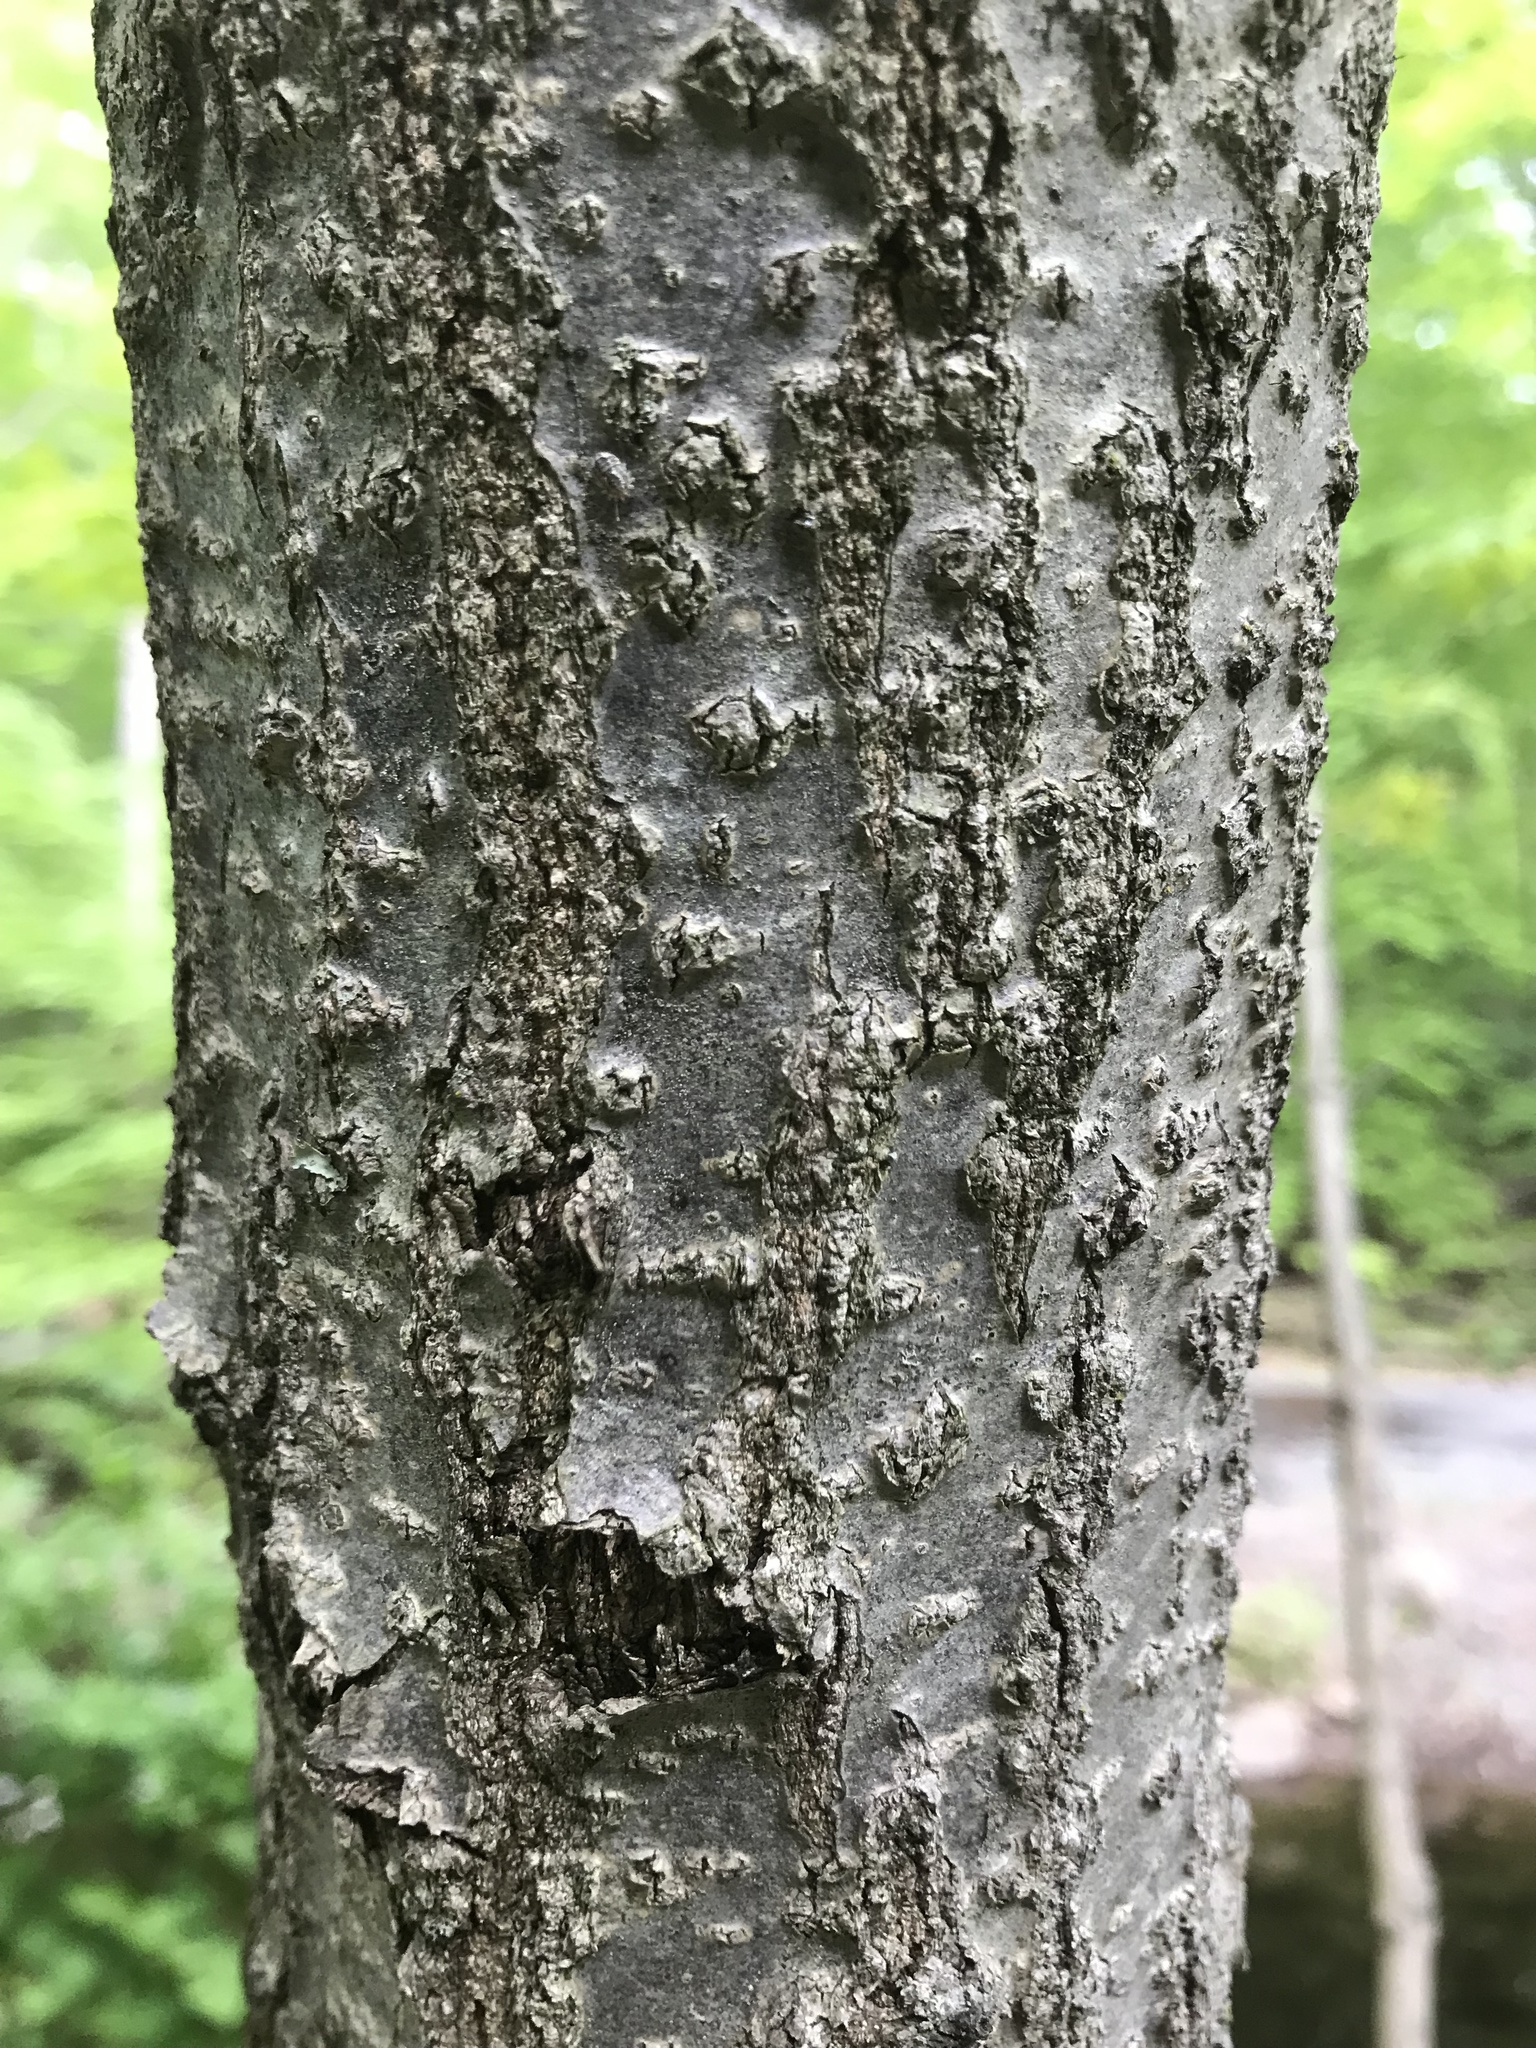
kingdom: Plantae
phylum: Tracheophyta
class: Magnoliopsida
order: Fagales
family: Fagaceae
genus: Quercus
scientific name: Quercus rubra
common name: Red oak
